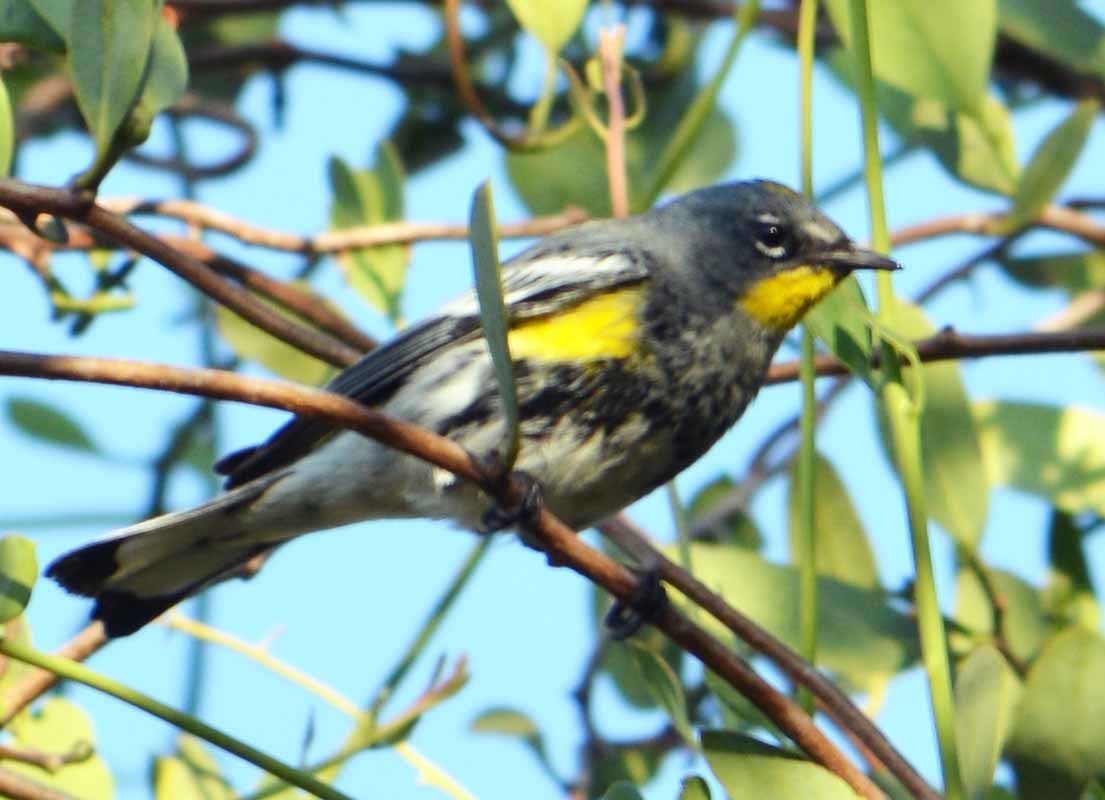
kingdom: Animalia
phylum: Chordata
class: Aves
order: Passeriformes
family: Parulidae
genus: Setophaga
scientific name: Setophaga coronata
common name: Myrtle warbler
